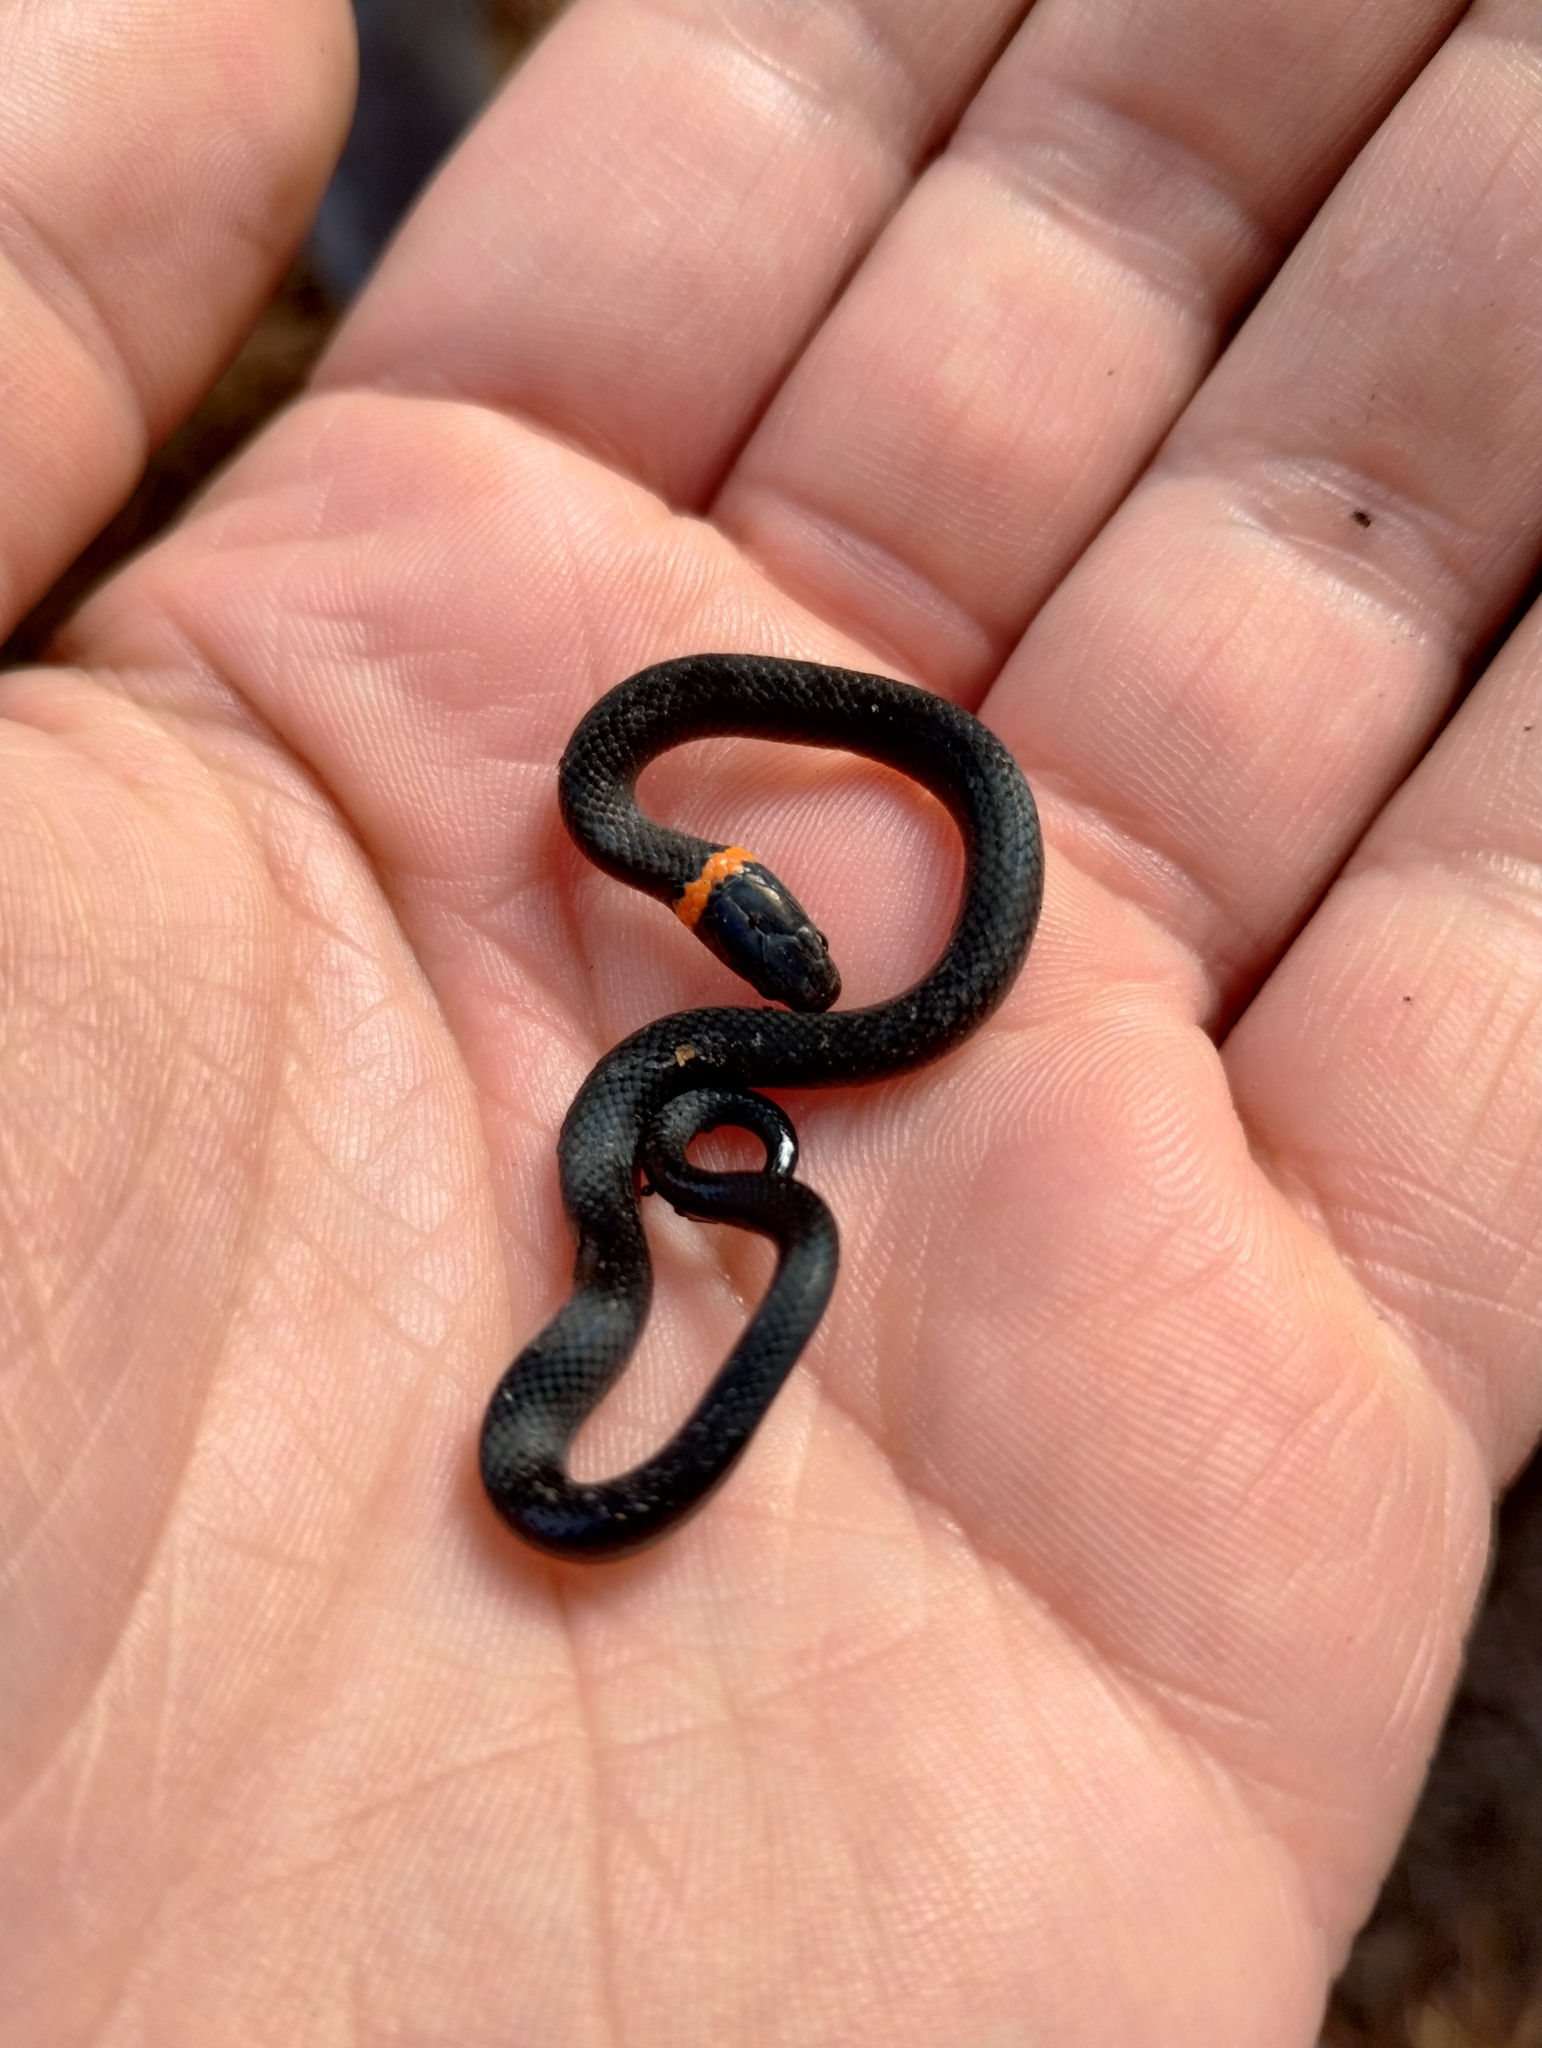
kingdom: Animalia
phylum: Chordata
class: Squamata
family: Colubridae
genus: Diadophis
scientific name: Diadophis punctatus
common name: Ringneck snake
